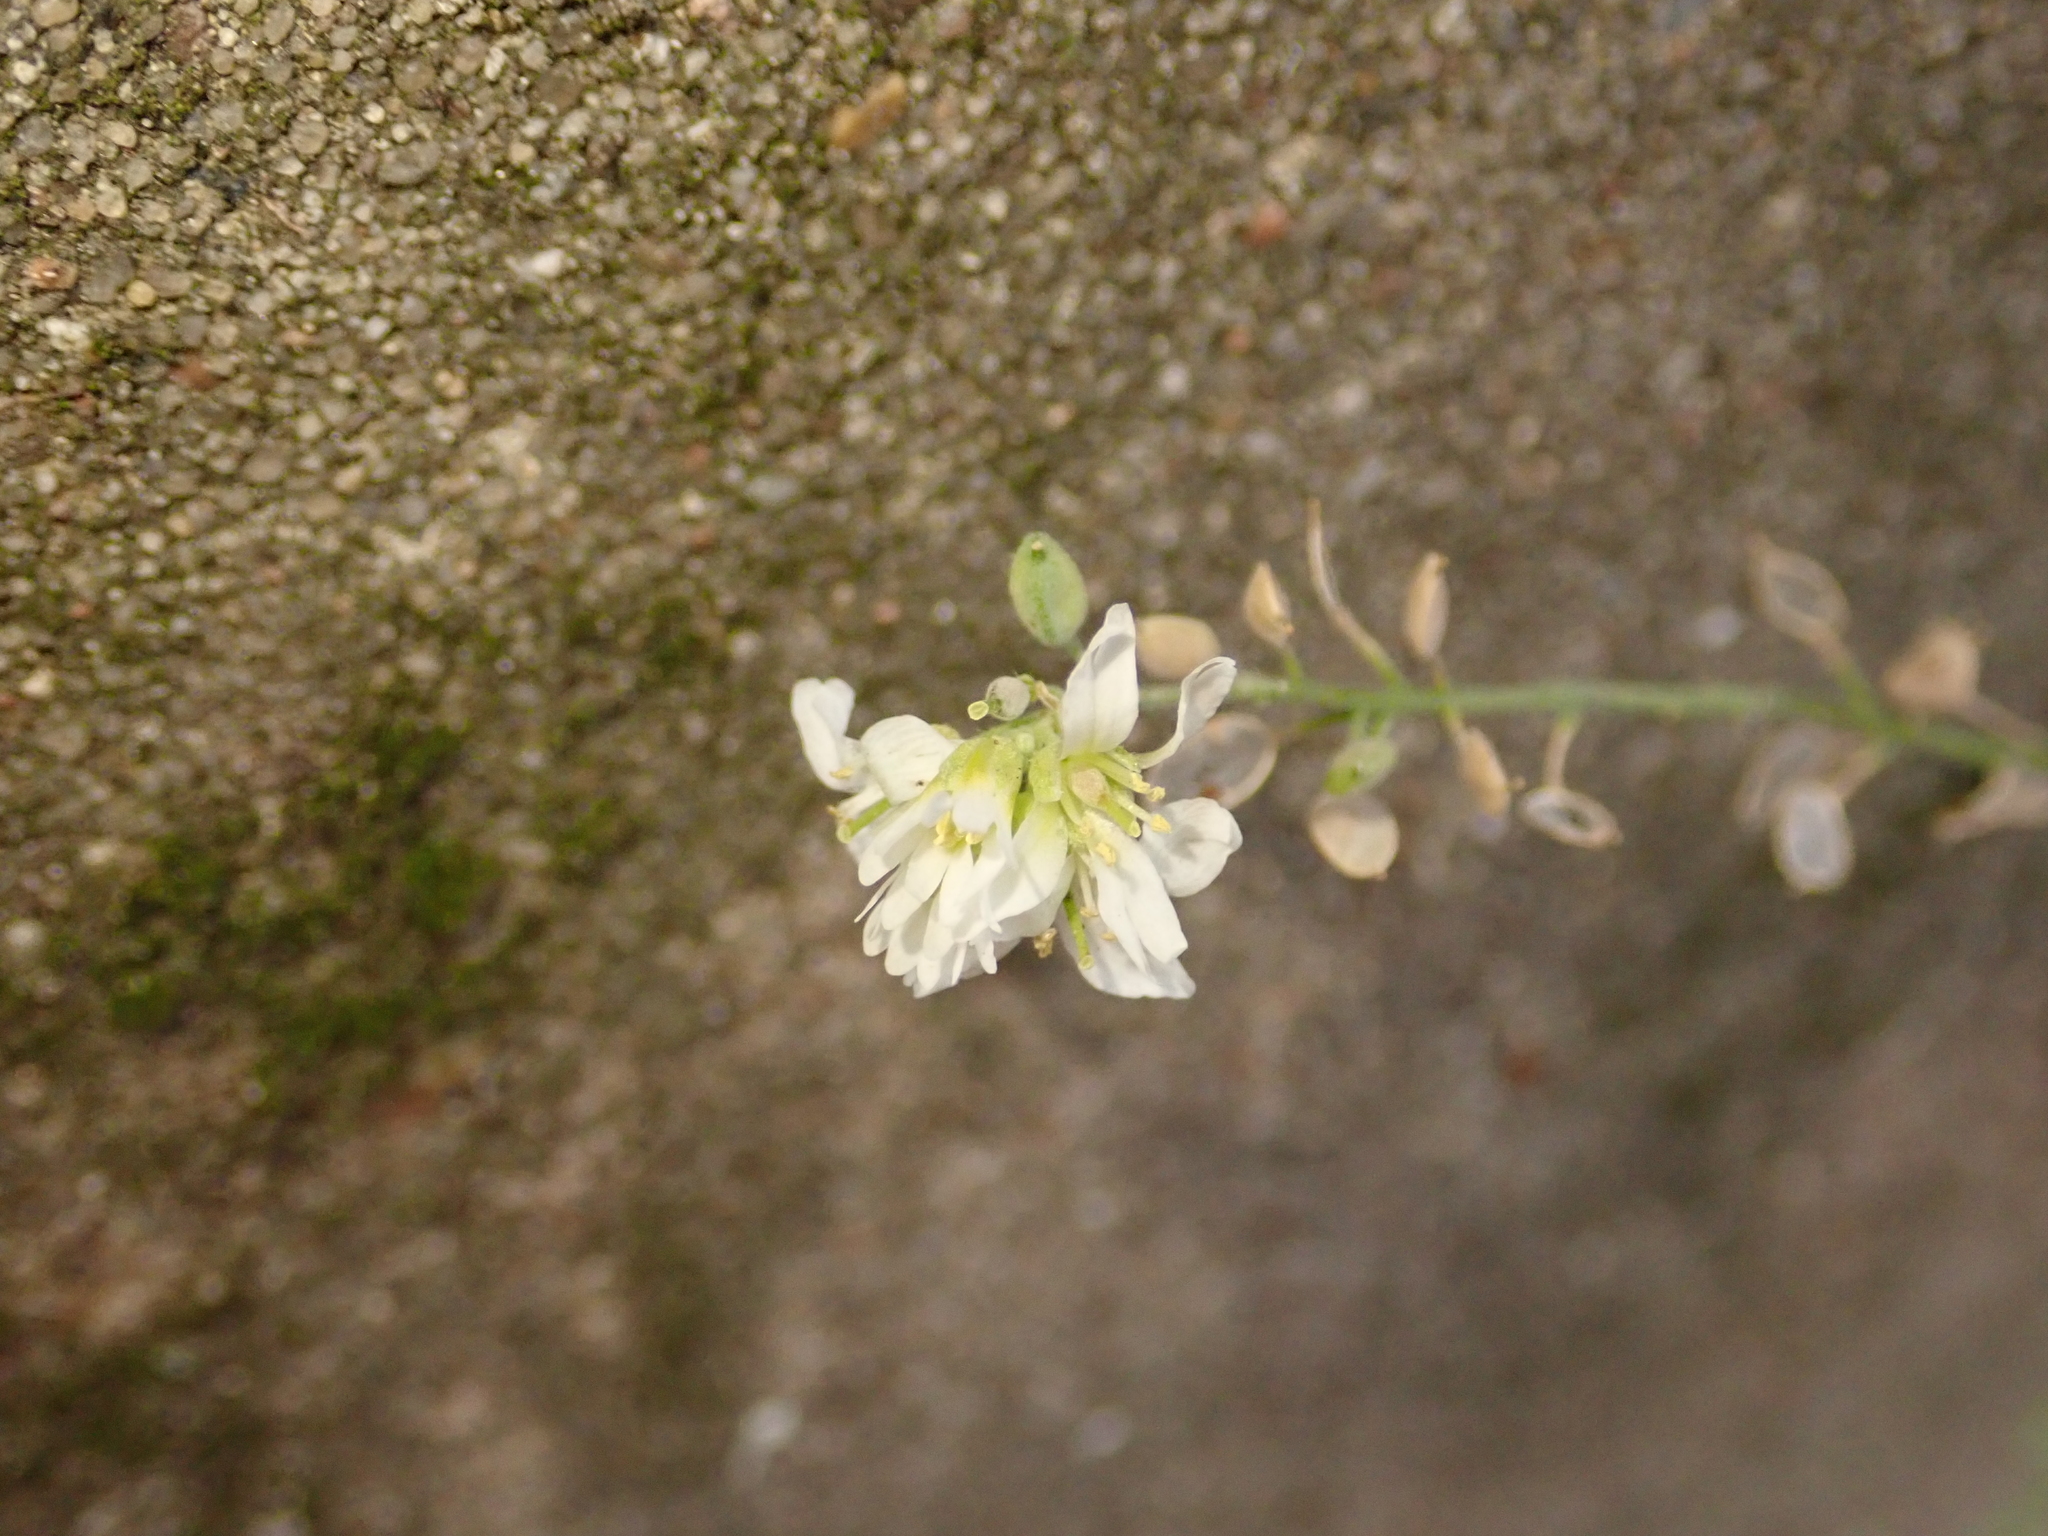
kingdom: Plantae
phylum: Tracheophyta
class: Magnoliopsida
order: Brassicales
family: Brassicaceae
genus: Berteroa
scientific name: Berteroa incana
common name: Hoary alison
